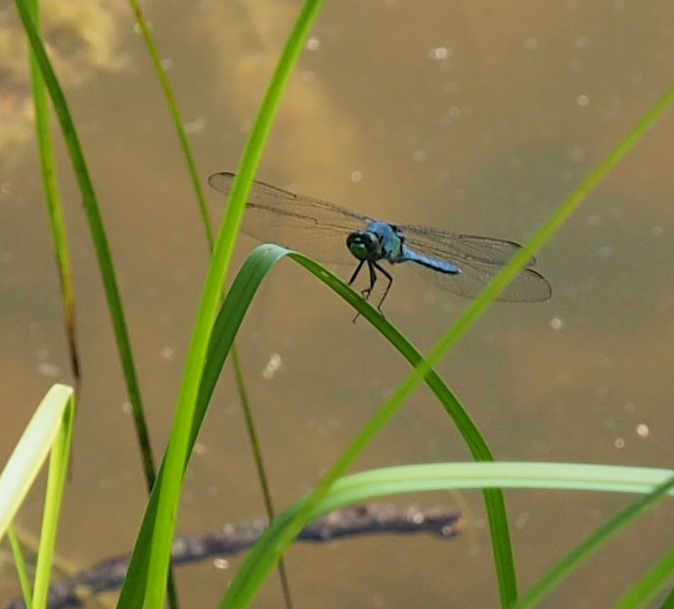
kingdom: Animalia
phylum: Arthropoda
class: Insecta
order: Odonata
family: Libellulidae
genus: Erythemis
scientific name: Erythemis simplicicollis
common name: Eastern pondhawk
